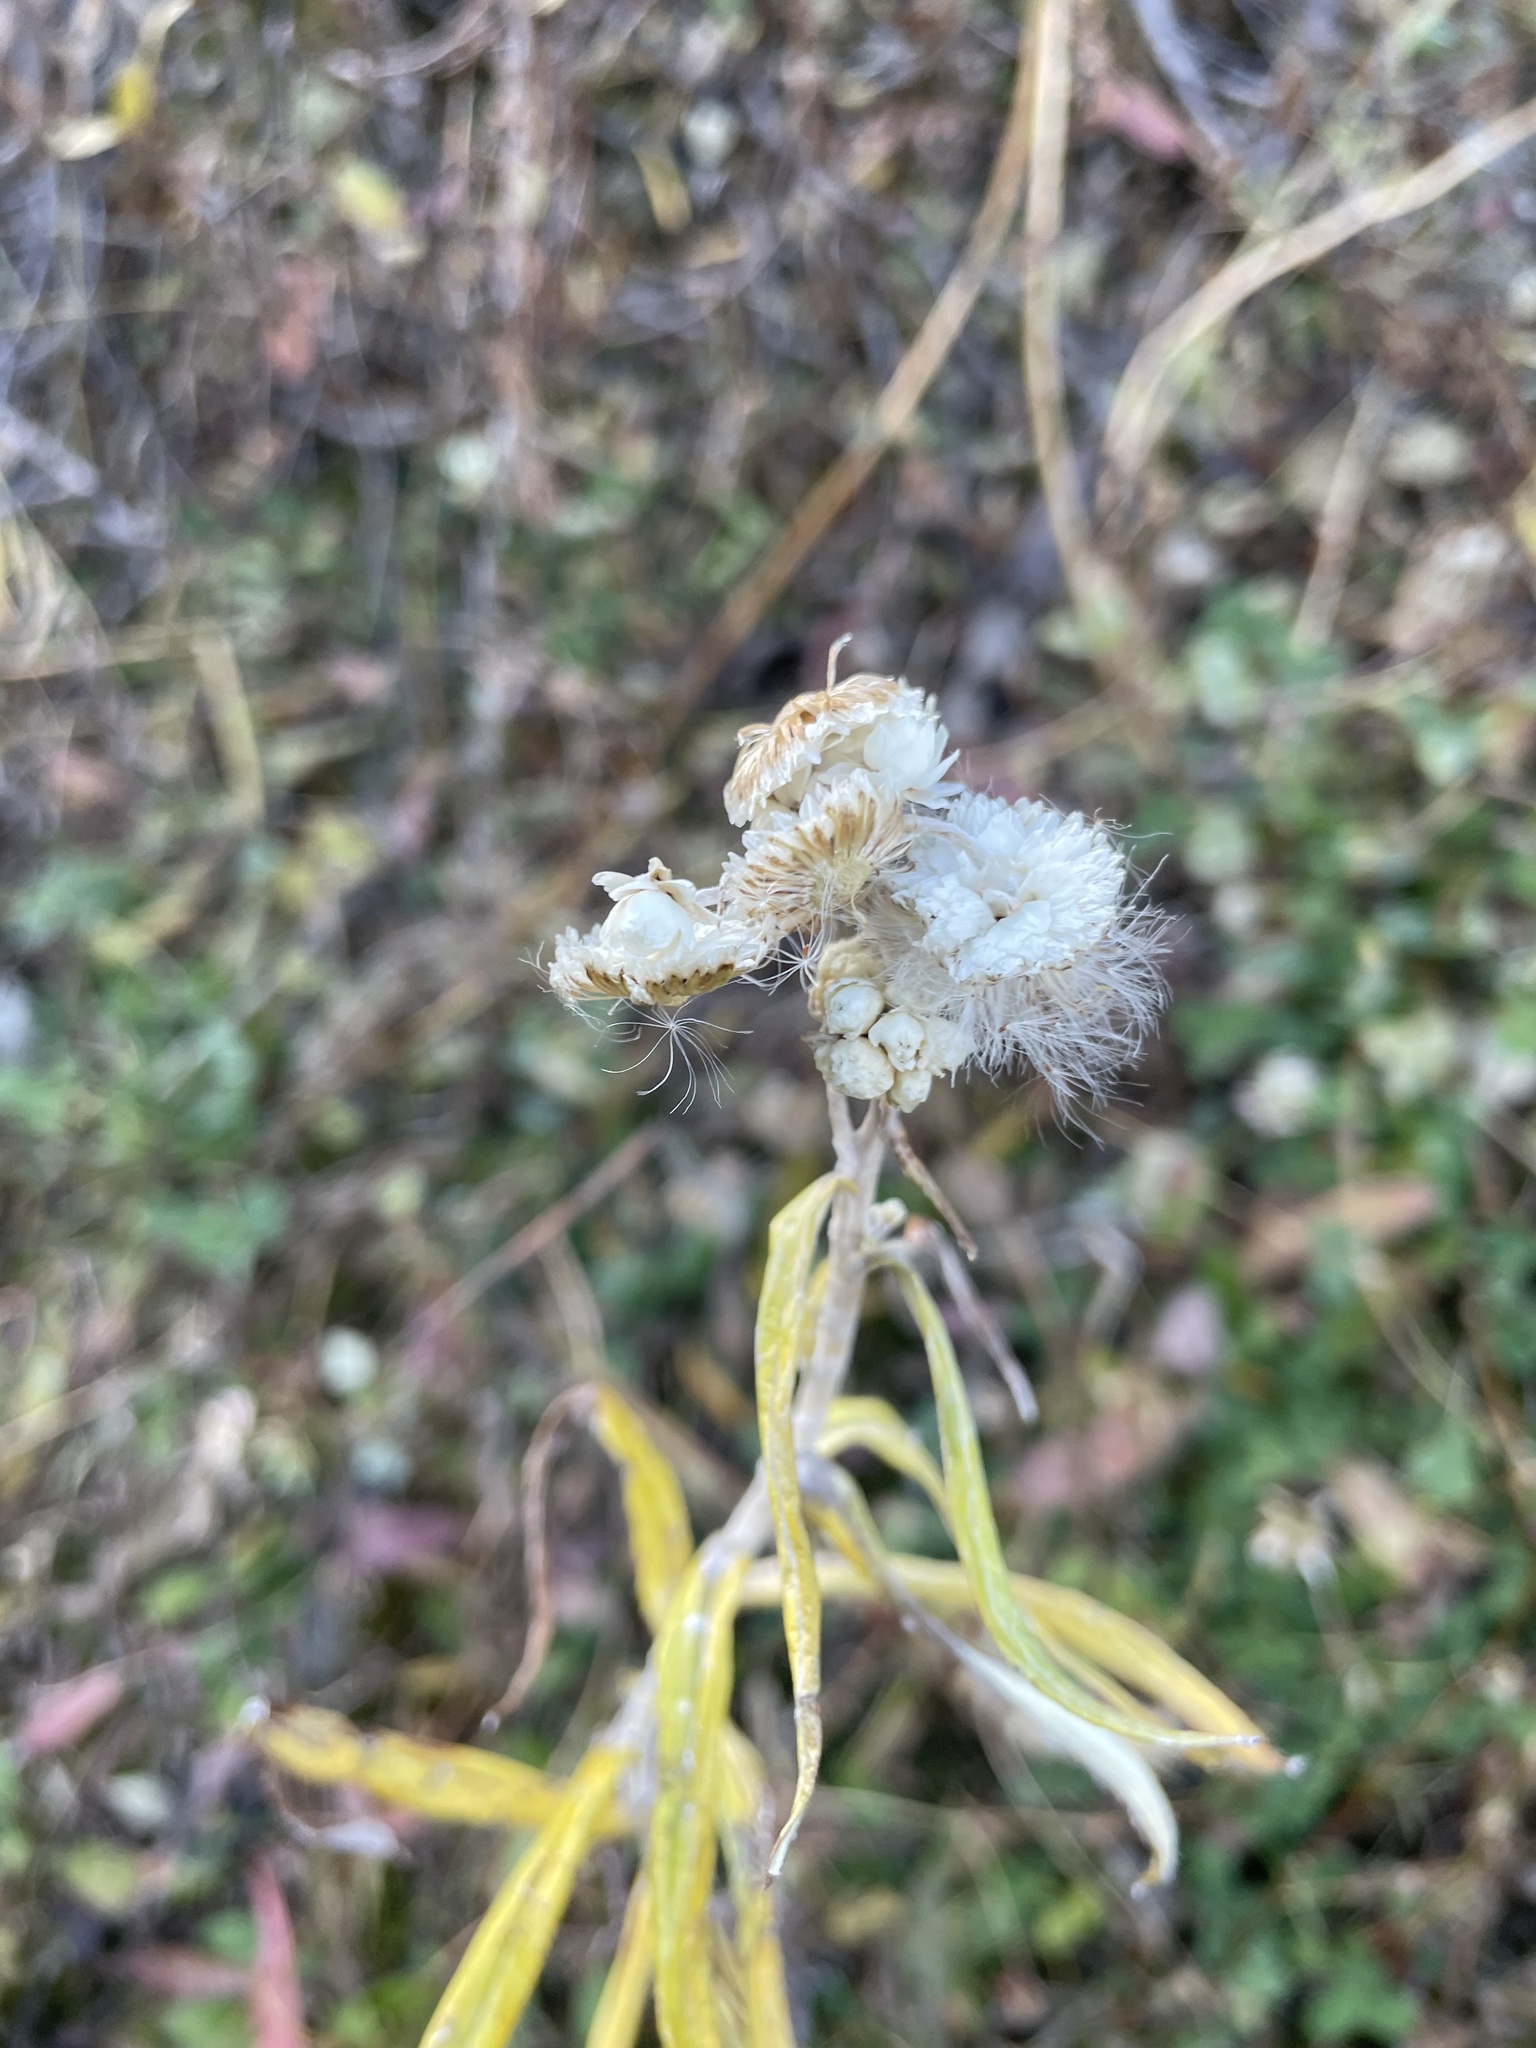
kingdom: Plantae
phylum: Tracheophyta
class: Magnoliopsida
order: Asterales
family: Asteraceae
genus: Anaphalis
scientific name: Anaphalis margaritacea
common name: Pearly everlasting
